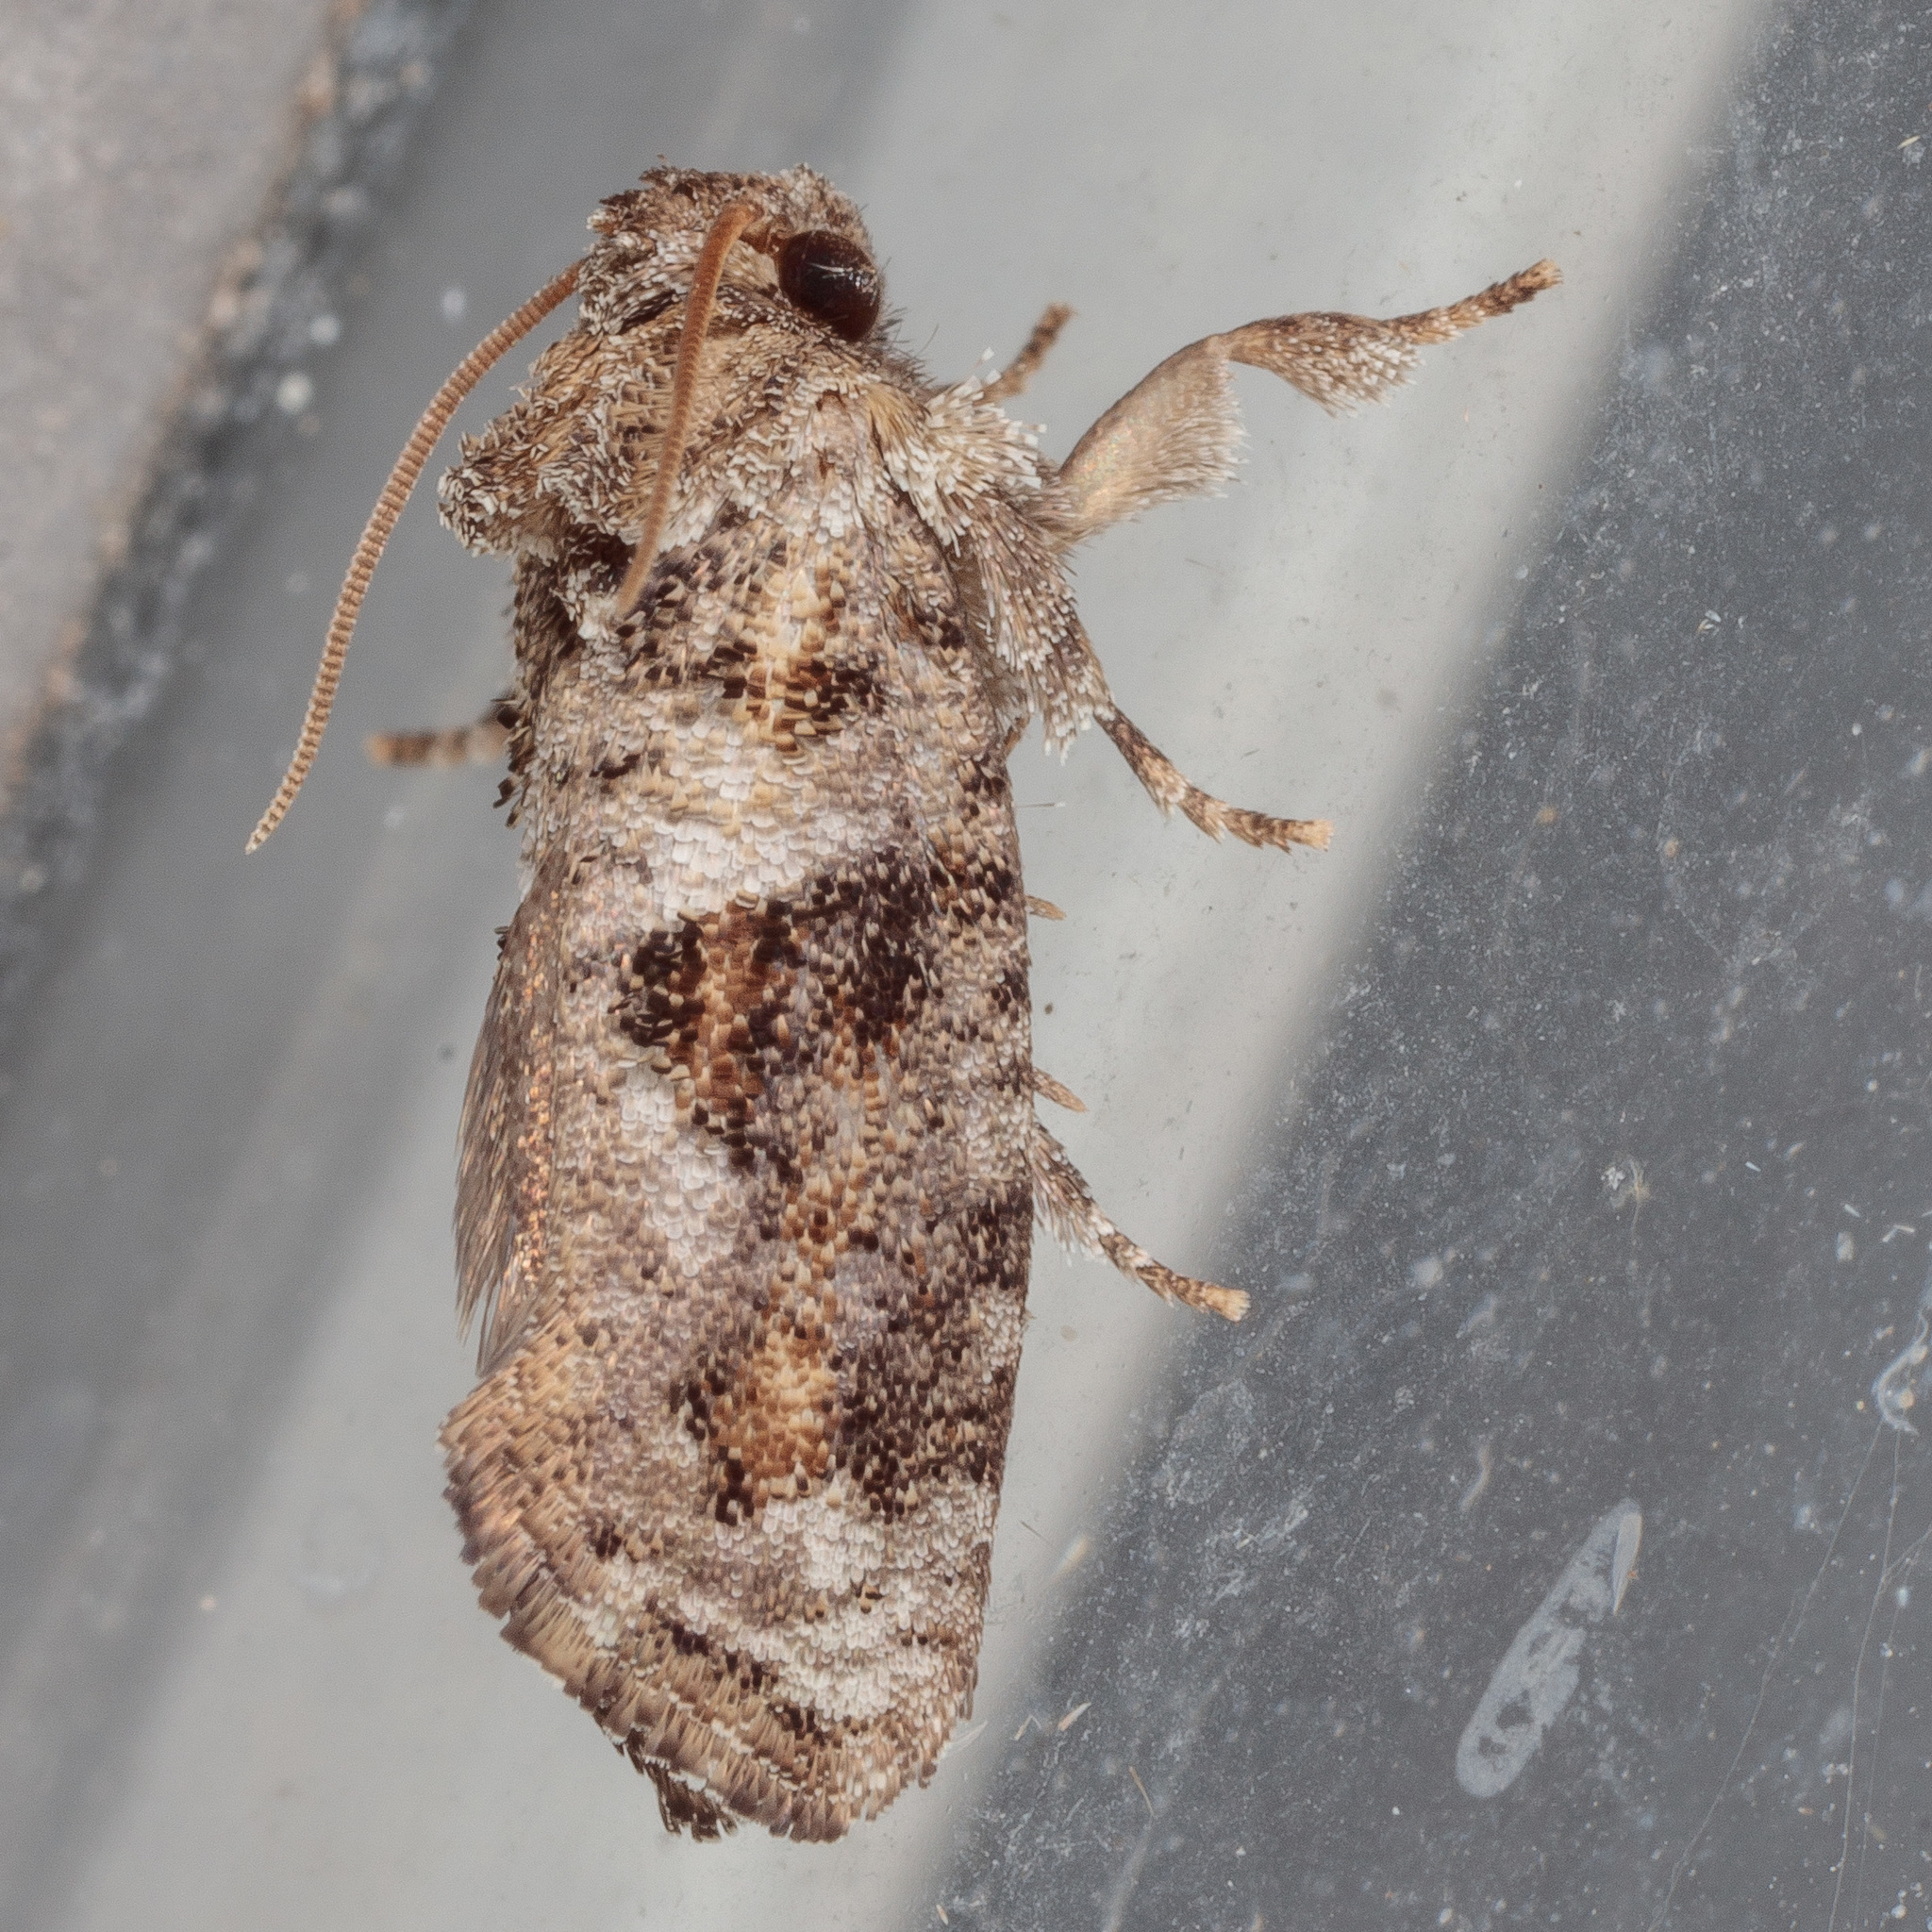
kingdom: Animalia
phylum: Arthropoda
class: Insecta
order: Lepidoptera
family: Tineidae
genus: Acrolophus
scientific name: Acrolophus piger
